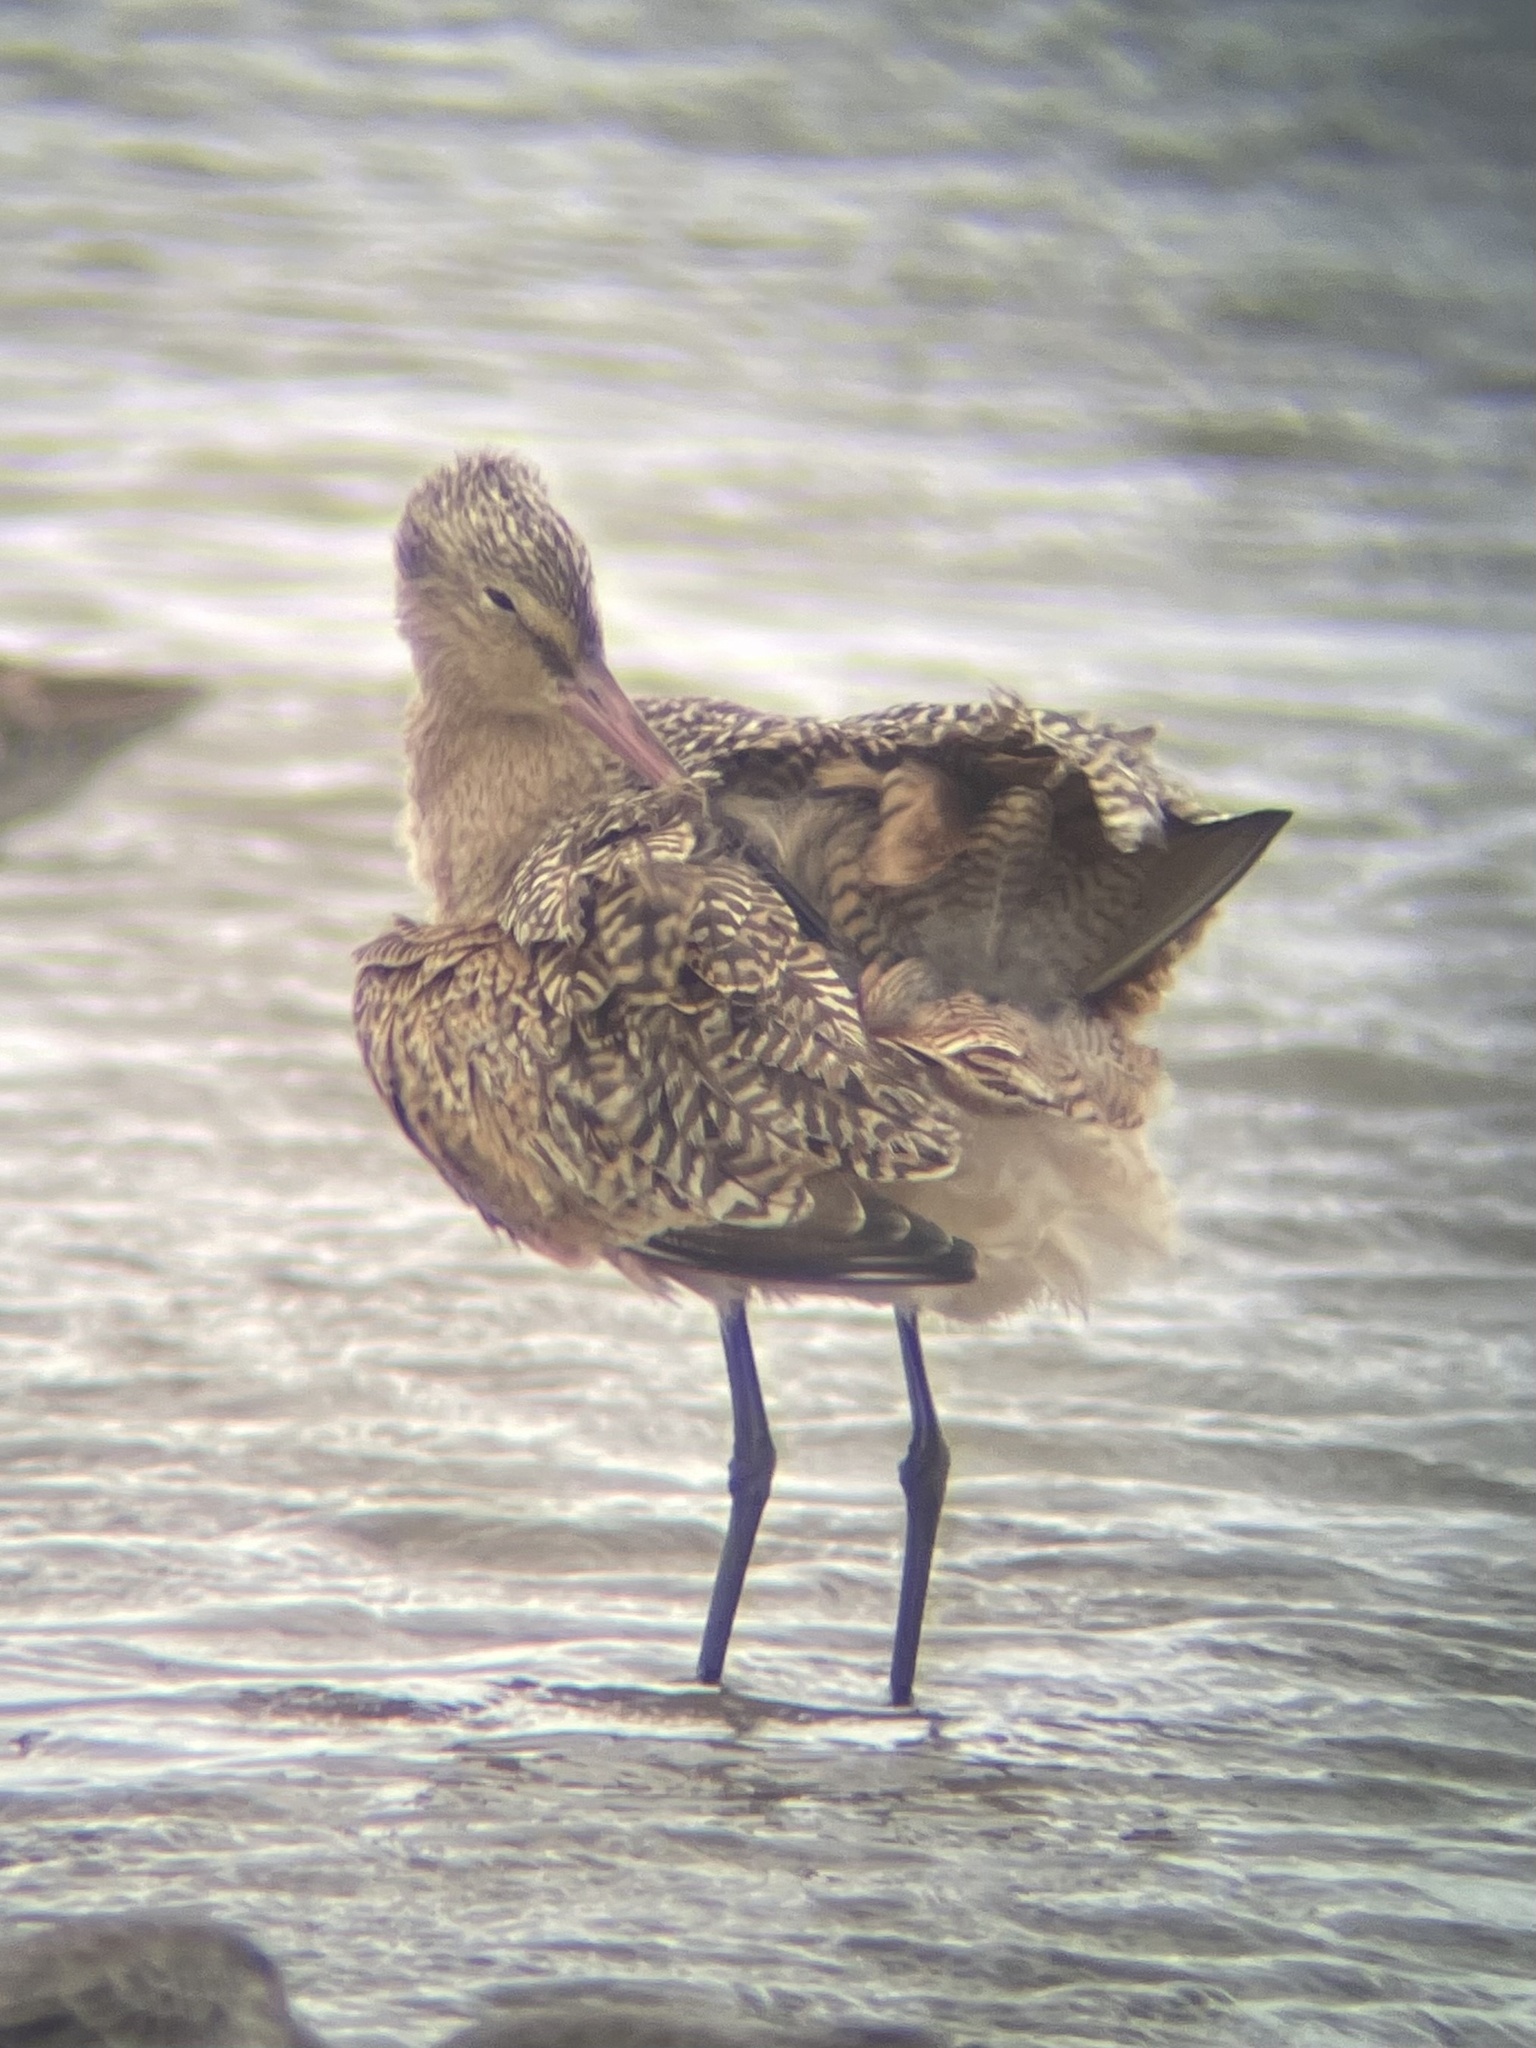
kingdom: Animalia
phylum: Chordata
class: Aves
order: Charadriiformes
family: Scolopacidae
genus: Limosa
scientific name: Limosa fedoa
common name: Marbled godwit
